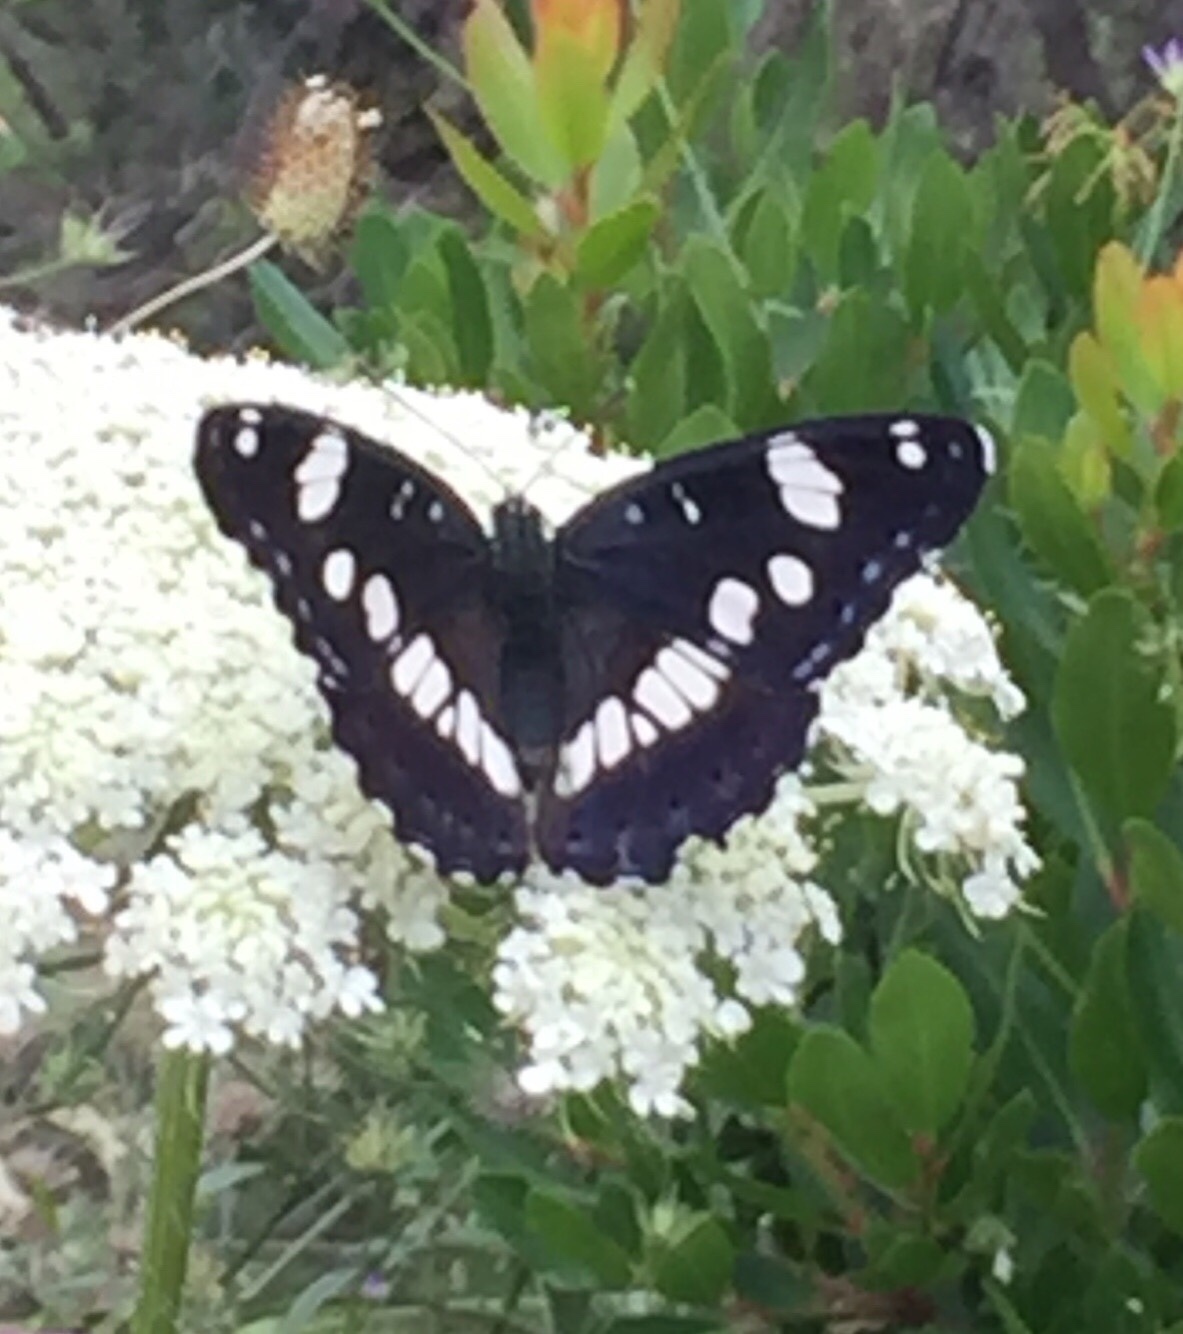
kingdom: Animalia
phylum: Arthropoda
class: Insecta
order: Lepidoptera
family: Nymphalidae
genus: Limenitis
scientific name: Limenitis reducta
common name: Southern white admiral
